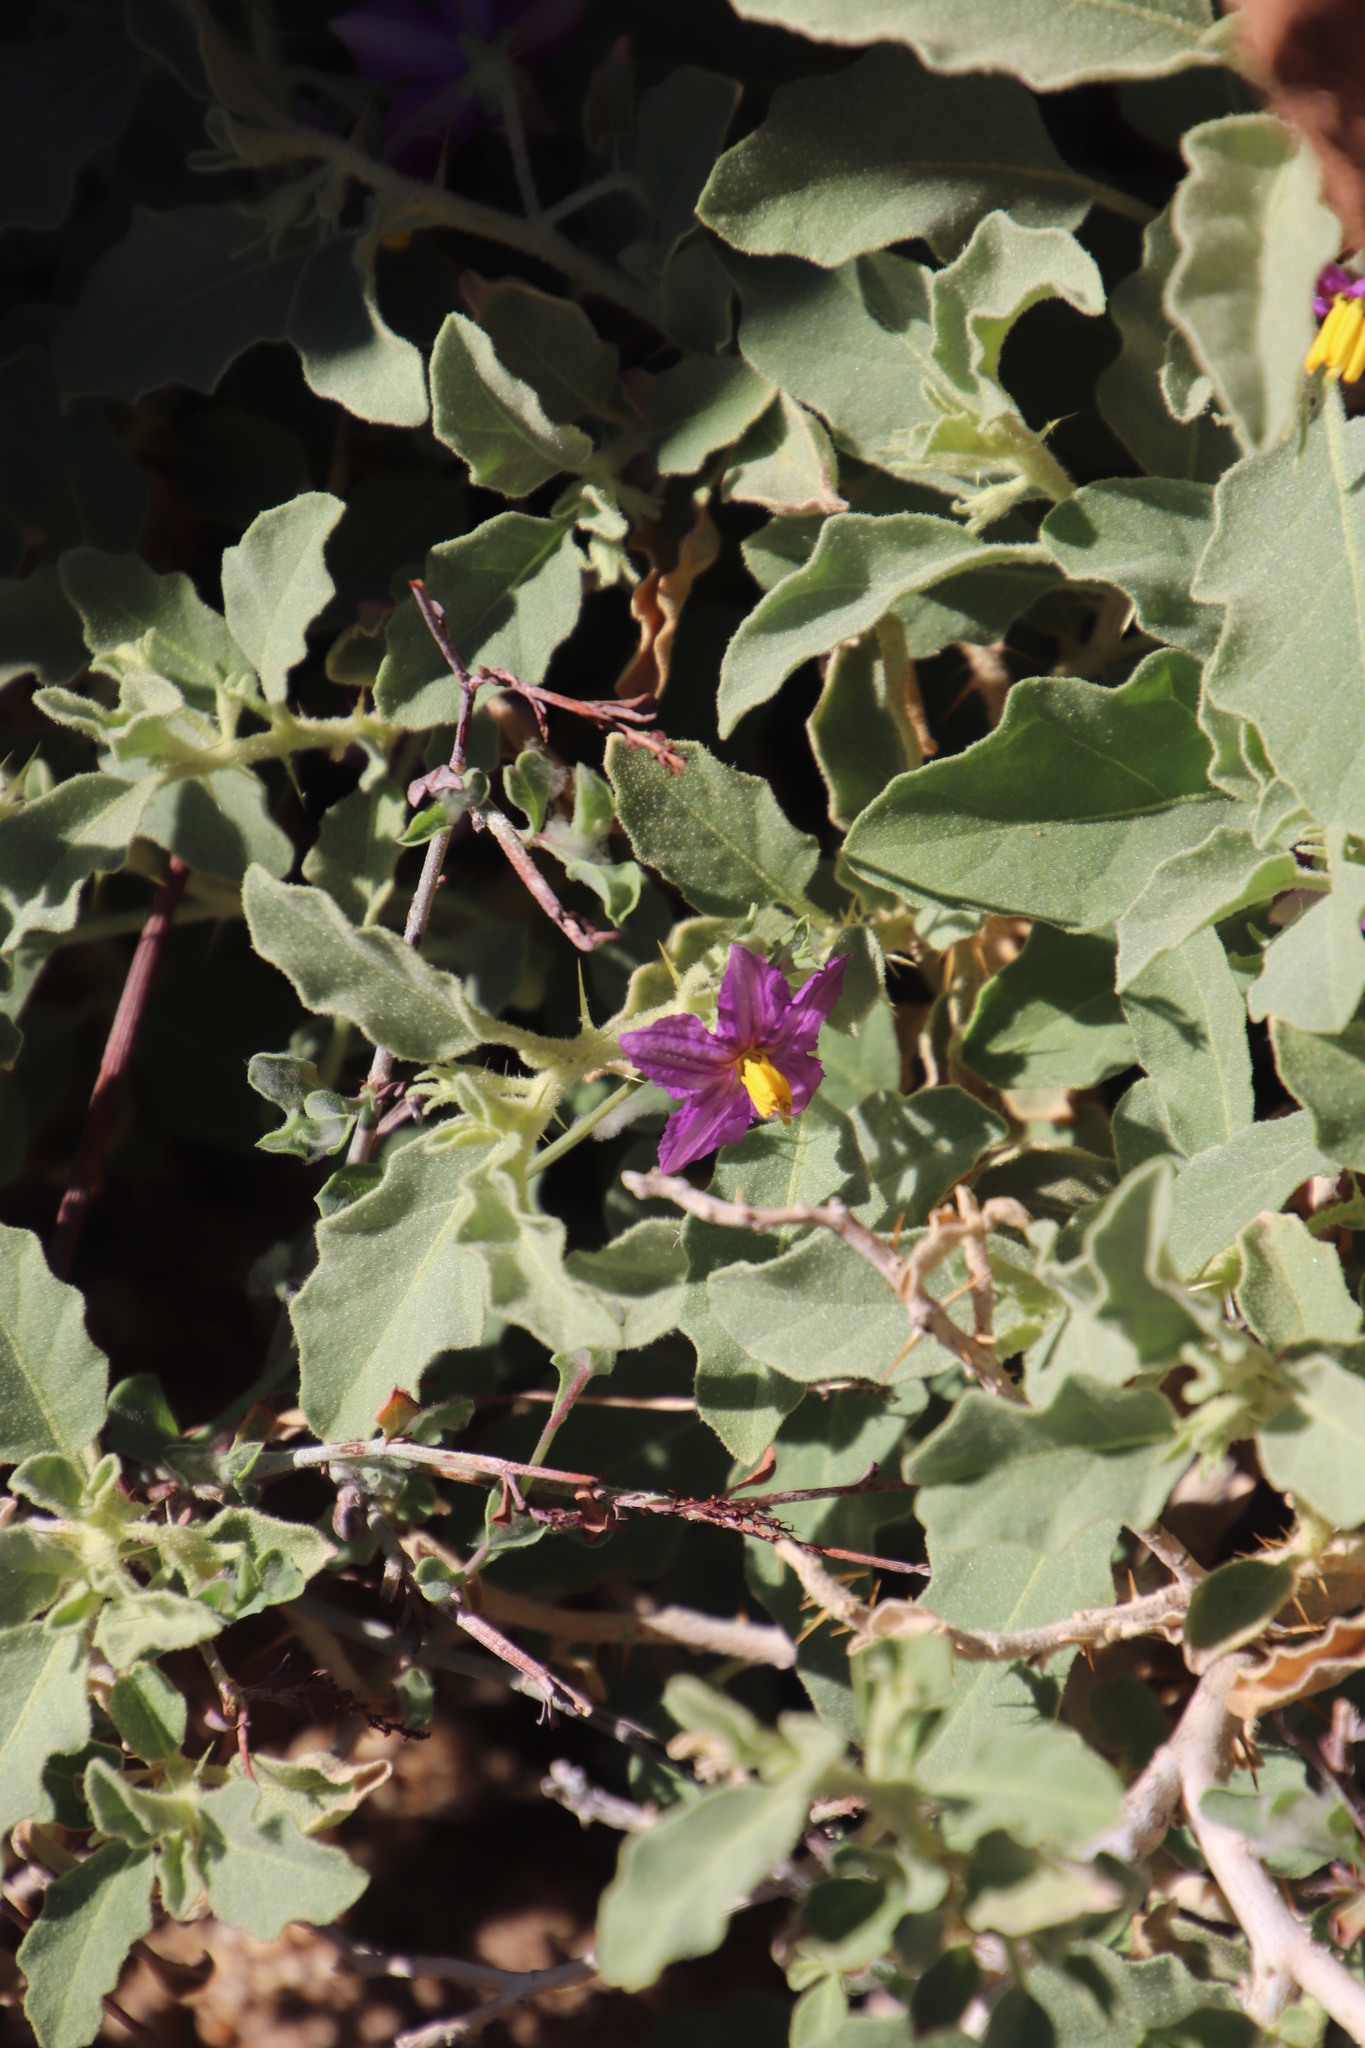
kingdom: Plantae
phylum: Tracheophyta
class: Magnoliopsida
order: Solanales
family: Solanaceae
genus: Solanum
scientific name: Solanum burchellii
